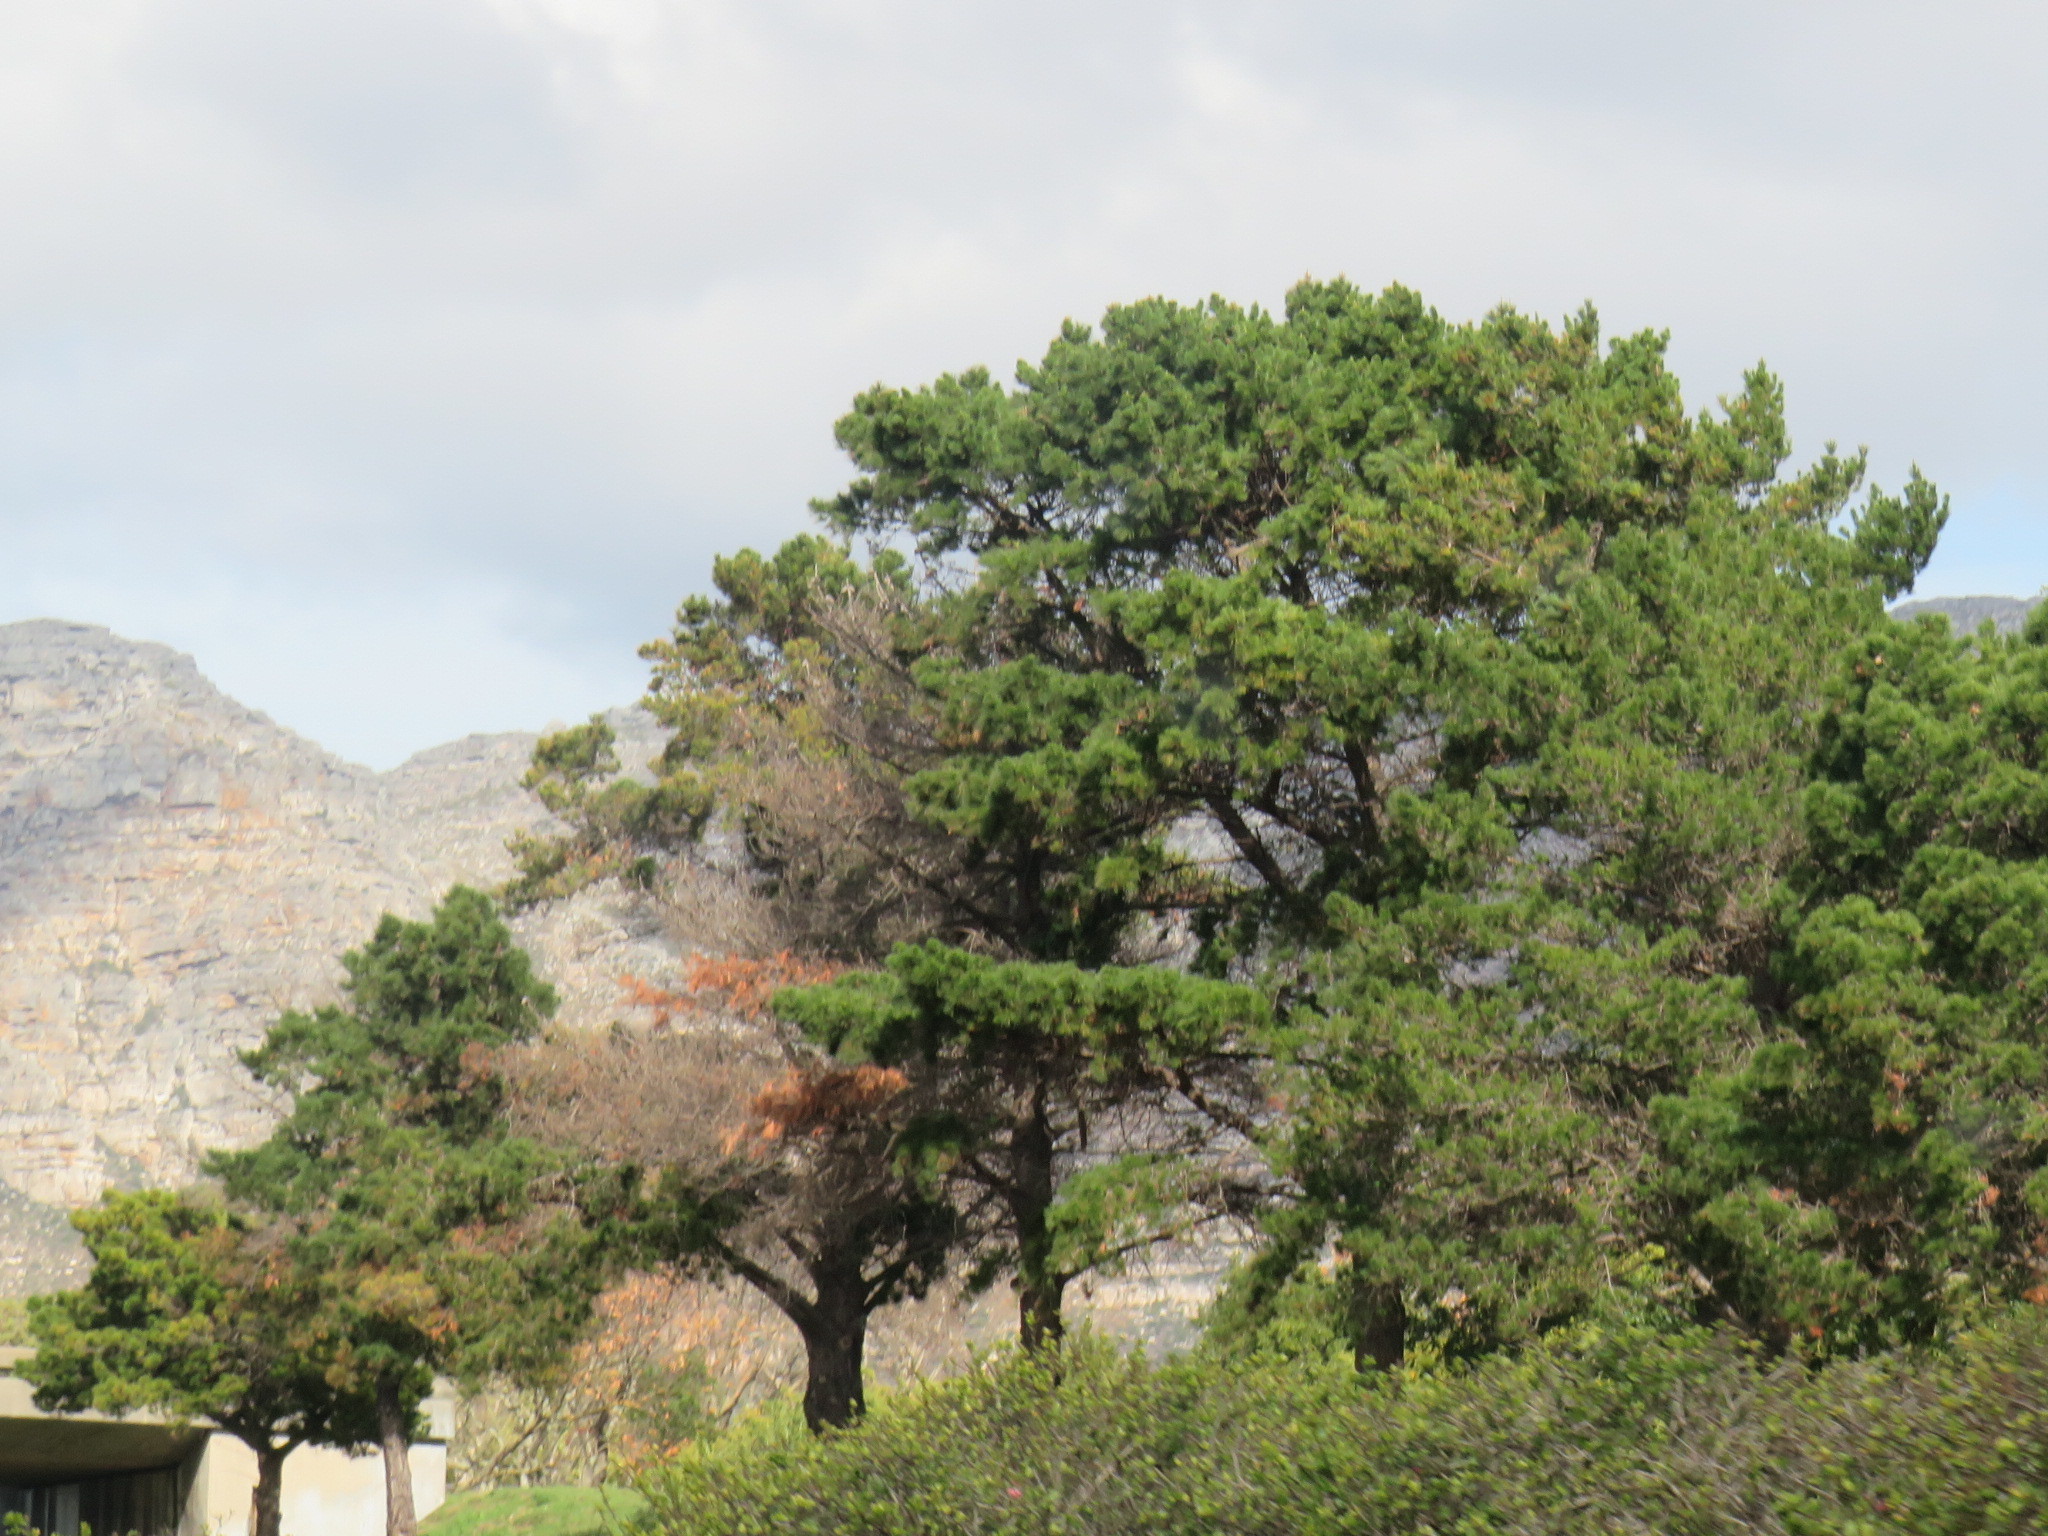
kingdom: Plantae
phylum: Tracheophyta
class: Pinopsida
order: Pinales
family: Pinaceae
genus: Pinus
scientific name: Pinus radiata
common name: Monterey pine
